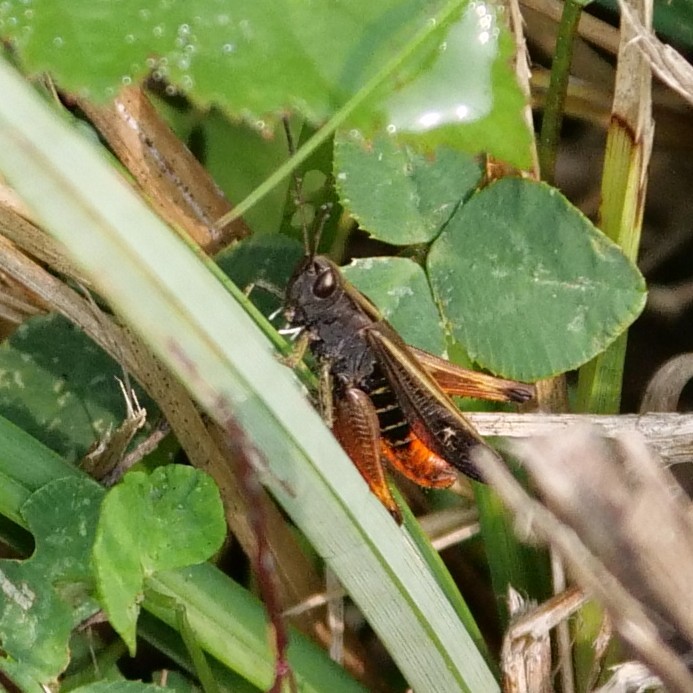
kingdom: Animalia
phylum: Arthropoda
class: Insecta
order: Orthoptera
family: Acrididae
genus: Omocestus
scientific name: Omocestus rufipes
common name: Woodland grasshopper
